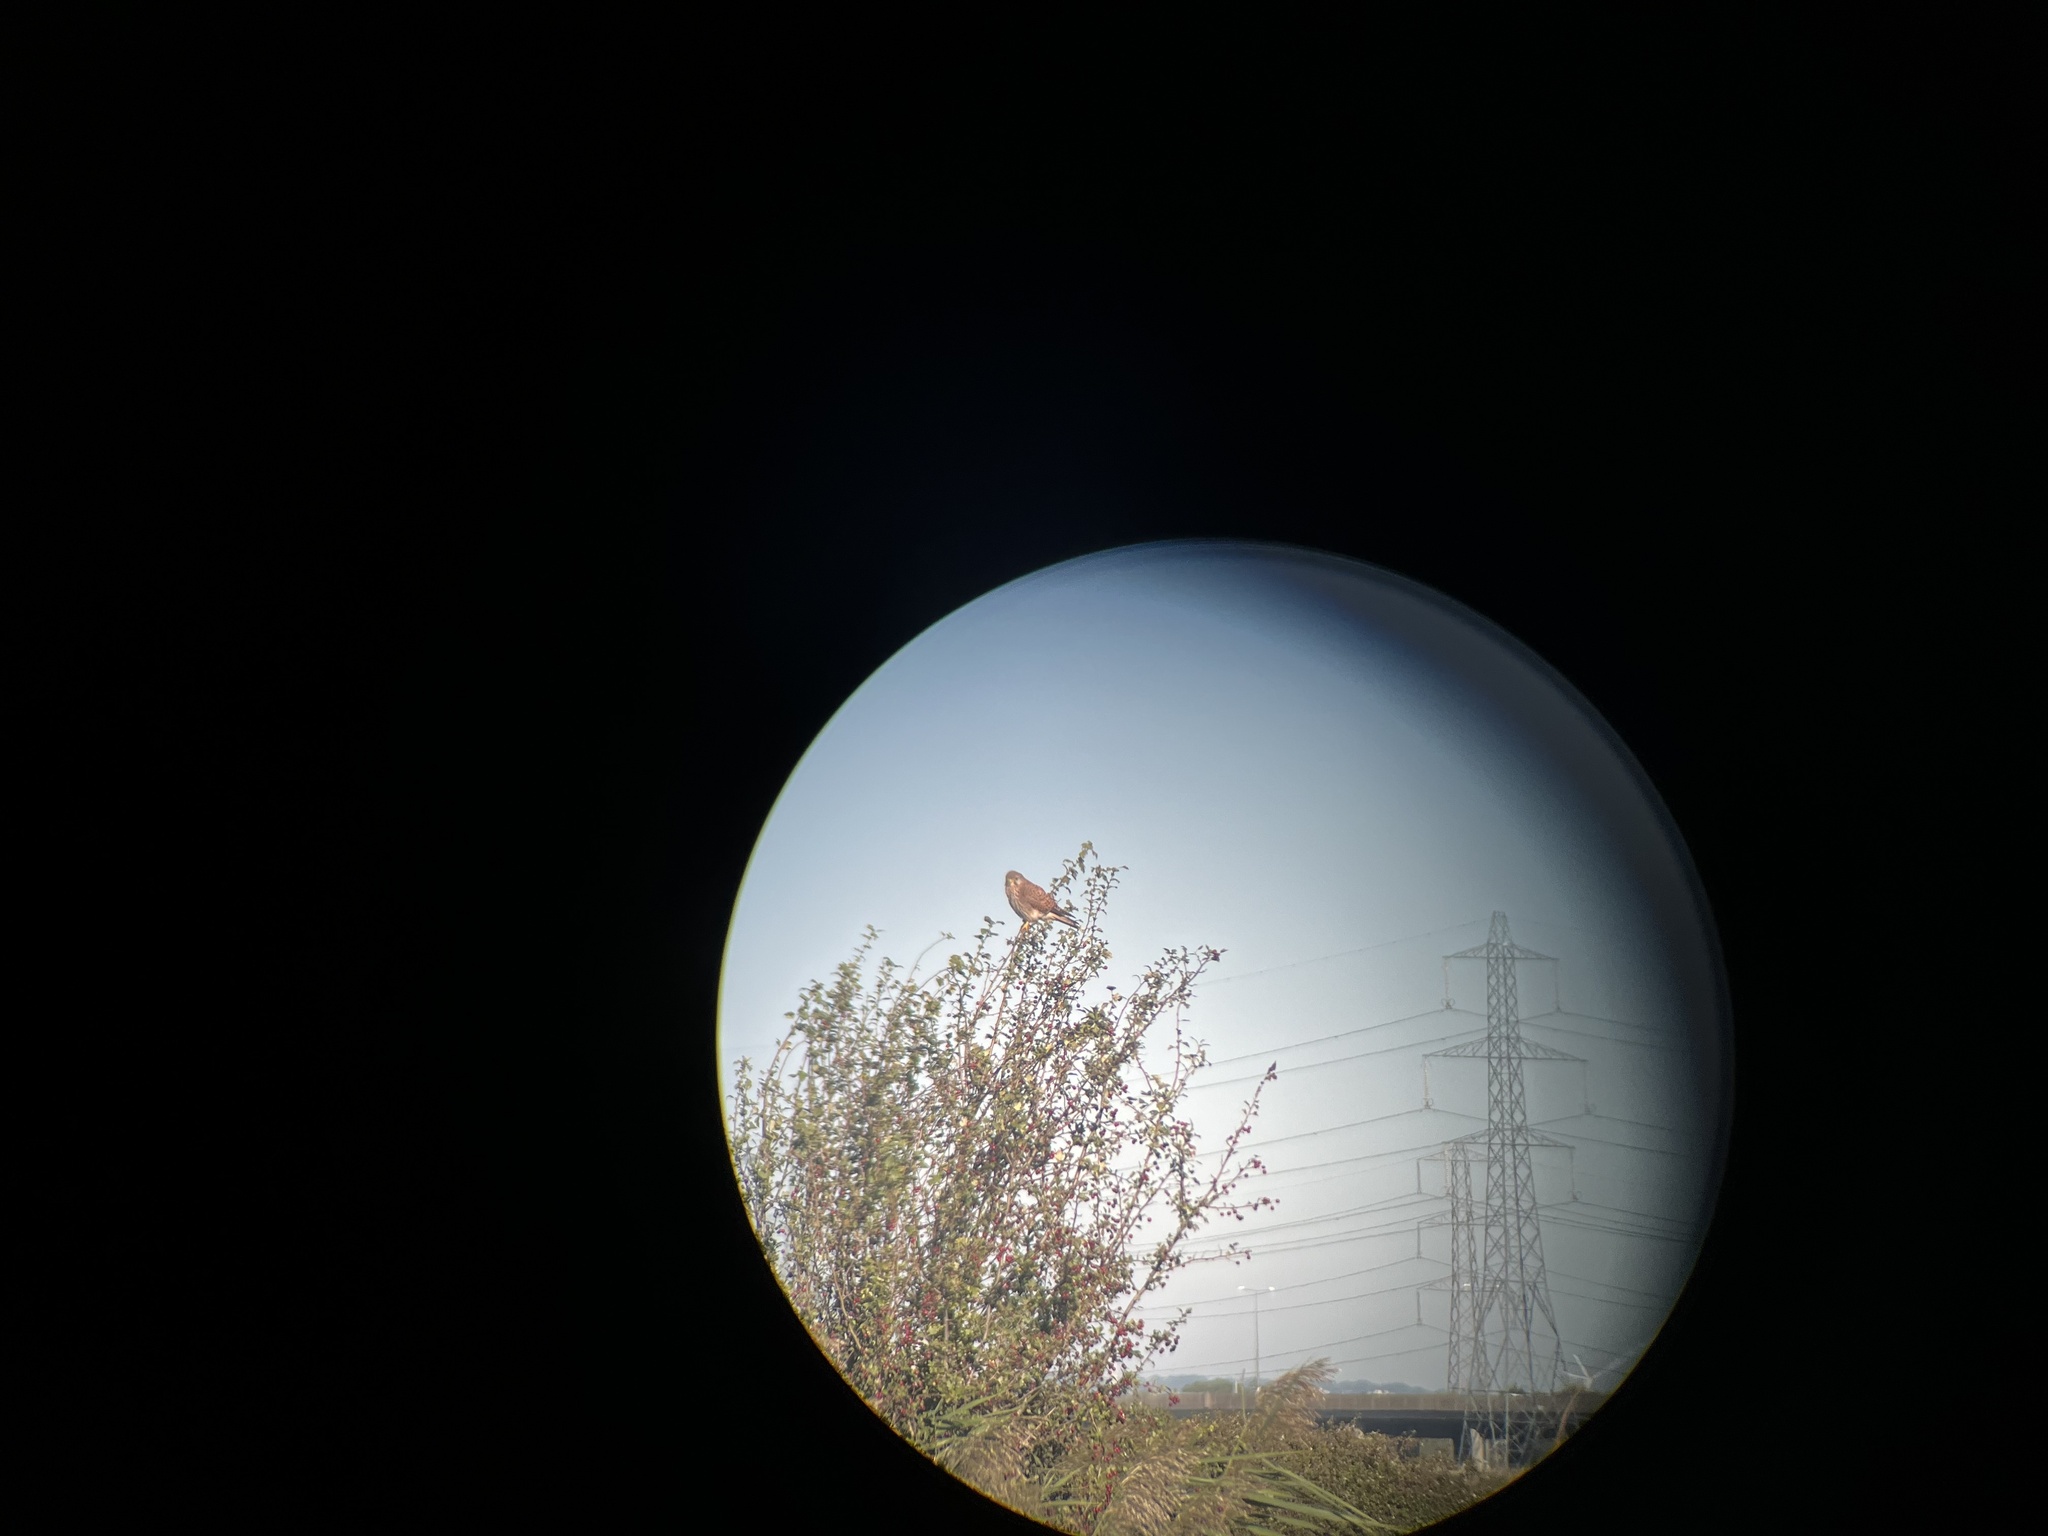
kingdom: Animalia
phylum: Chordata
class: Aves
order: Falconiformes
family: Falconidae
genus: Falco
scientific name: Falco tinnunculus
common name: Common kestrel
